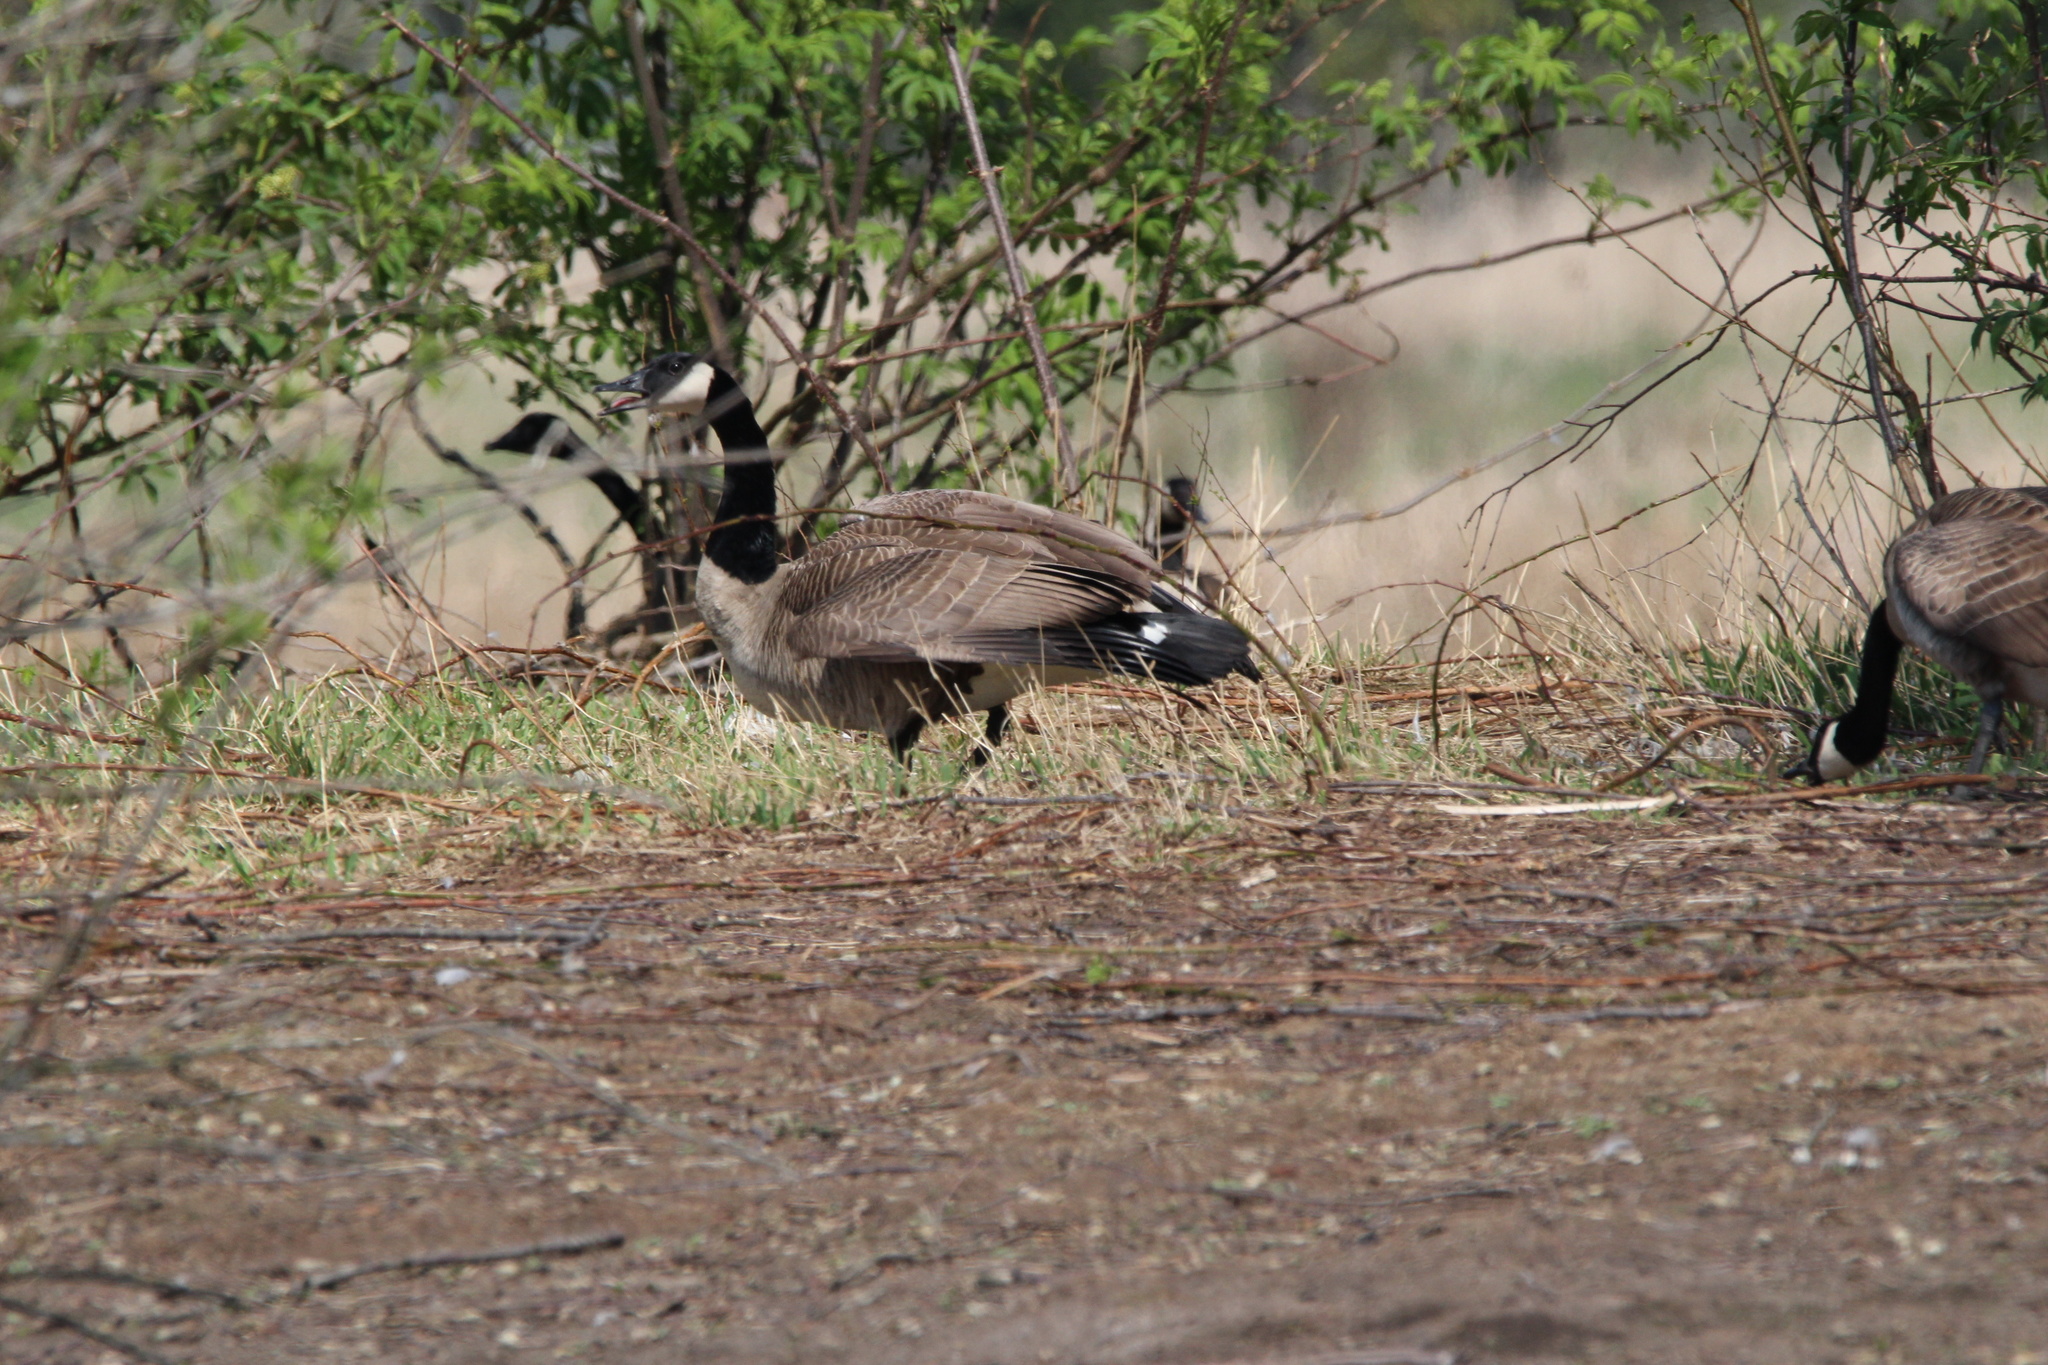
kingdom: Animalia
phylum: Chordata
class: Aves
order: Anseriformes
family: Anatidae
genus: Branta
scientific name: Branta canadensis
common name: Canada goose
